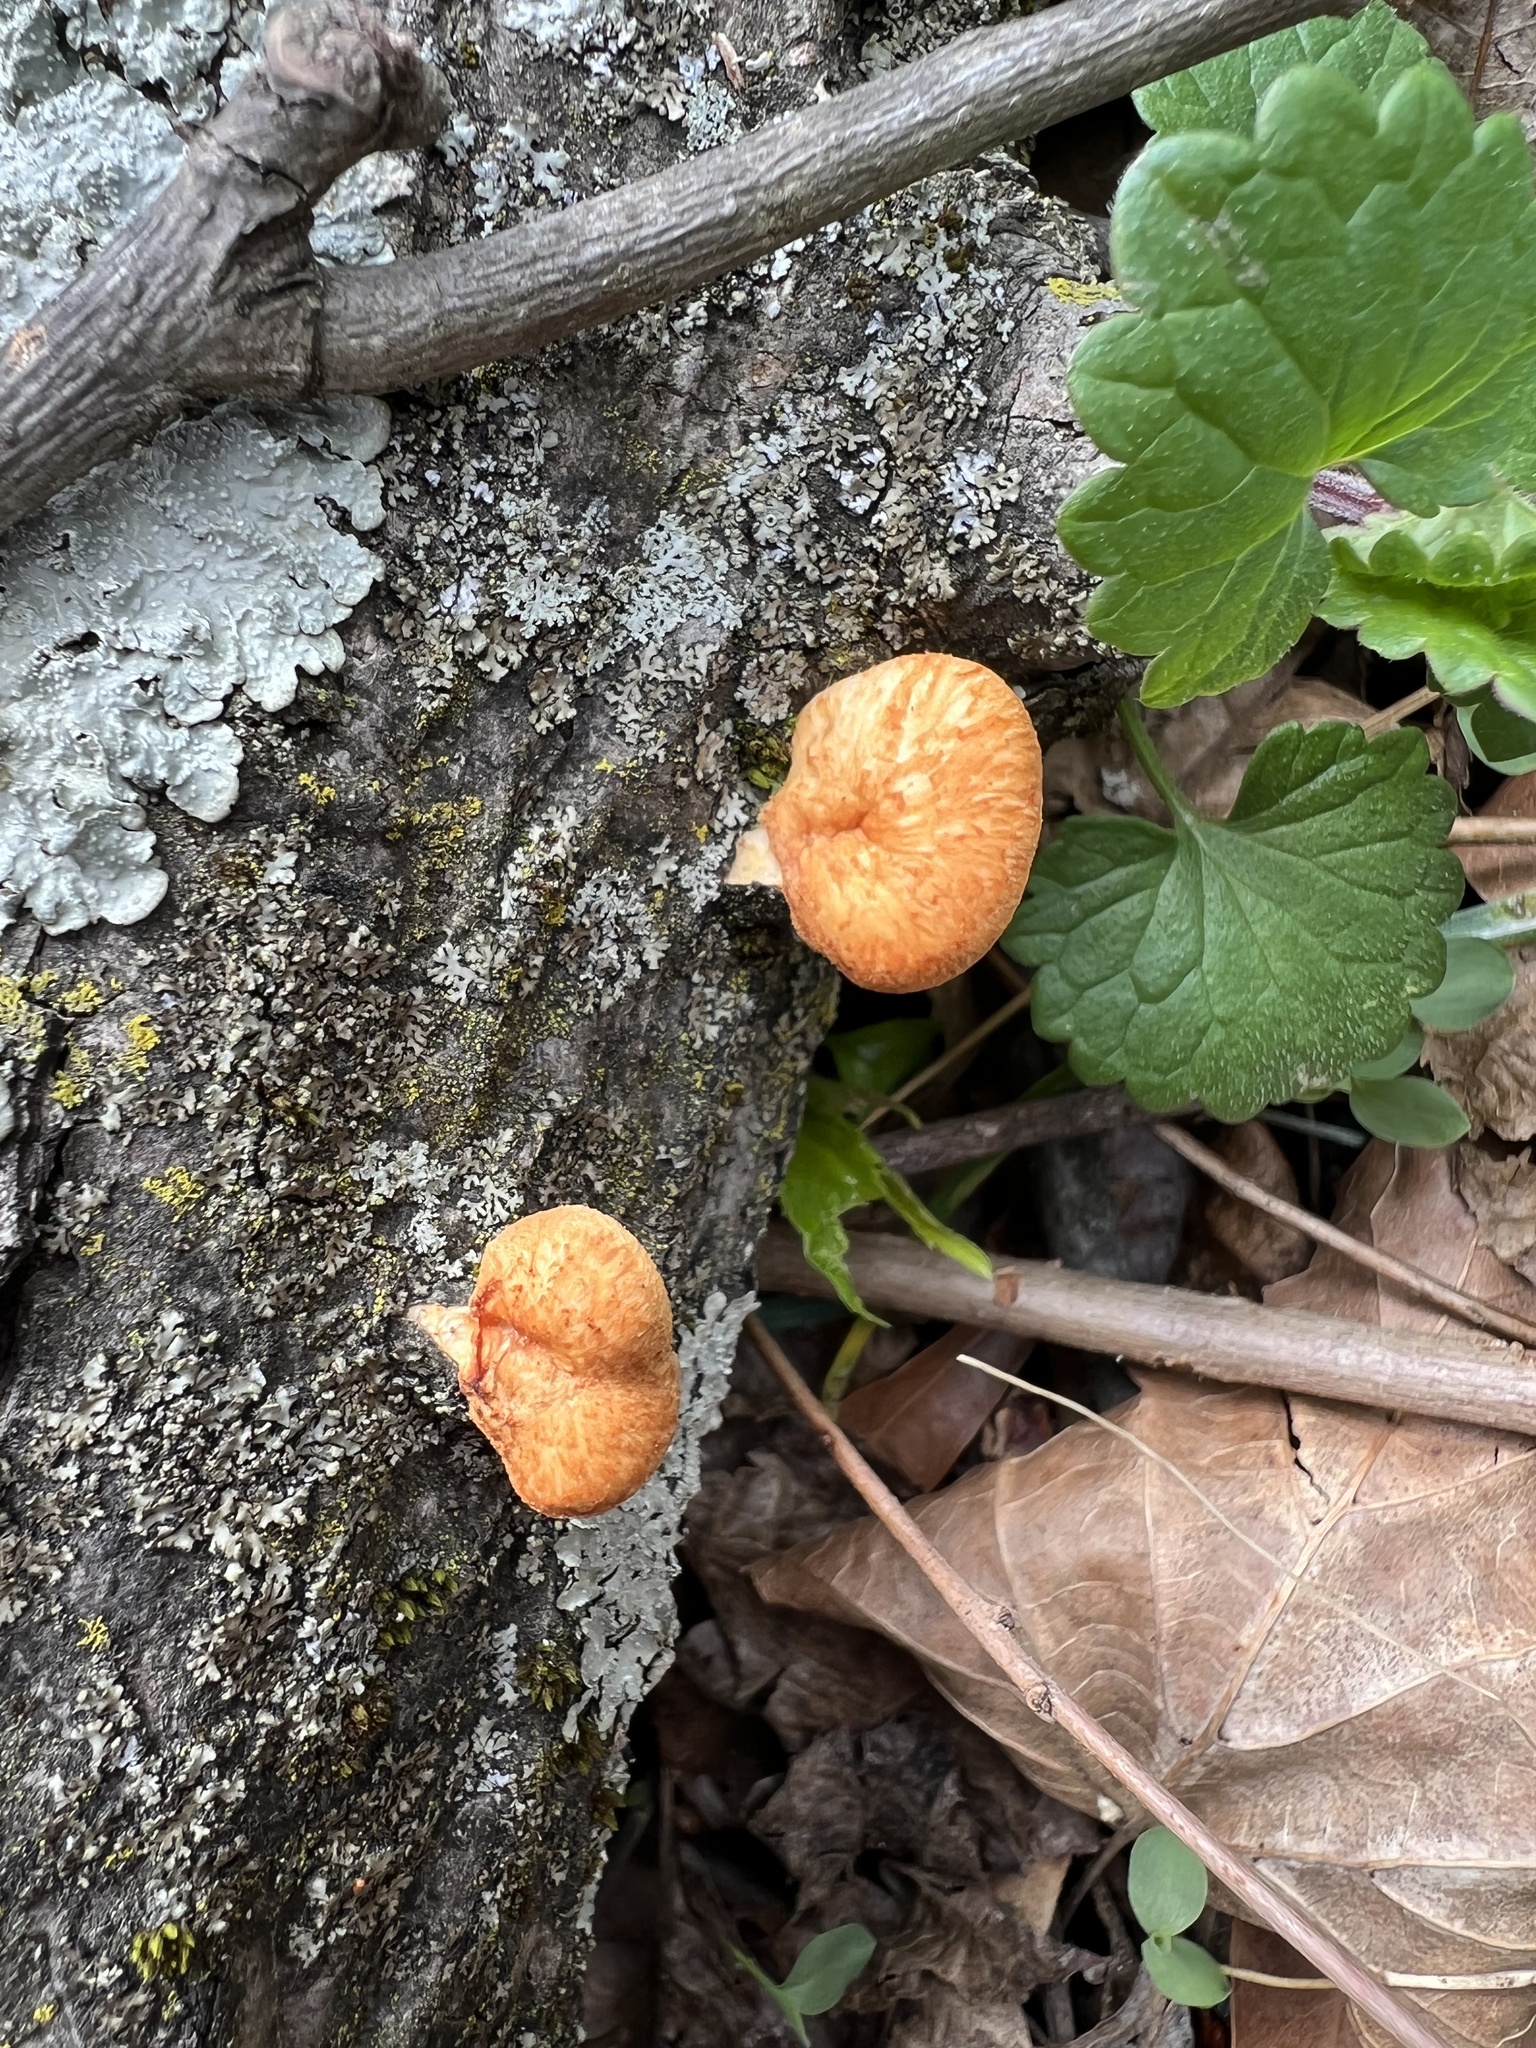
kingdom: Fungi
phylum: Basidiomycota
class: Agaricomycetes
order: Polyporales
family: Polyporaceae
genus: Neofavolus
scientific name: Neofavolus americanus
